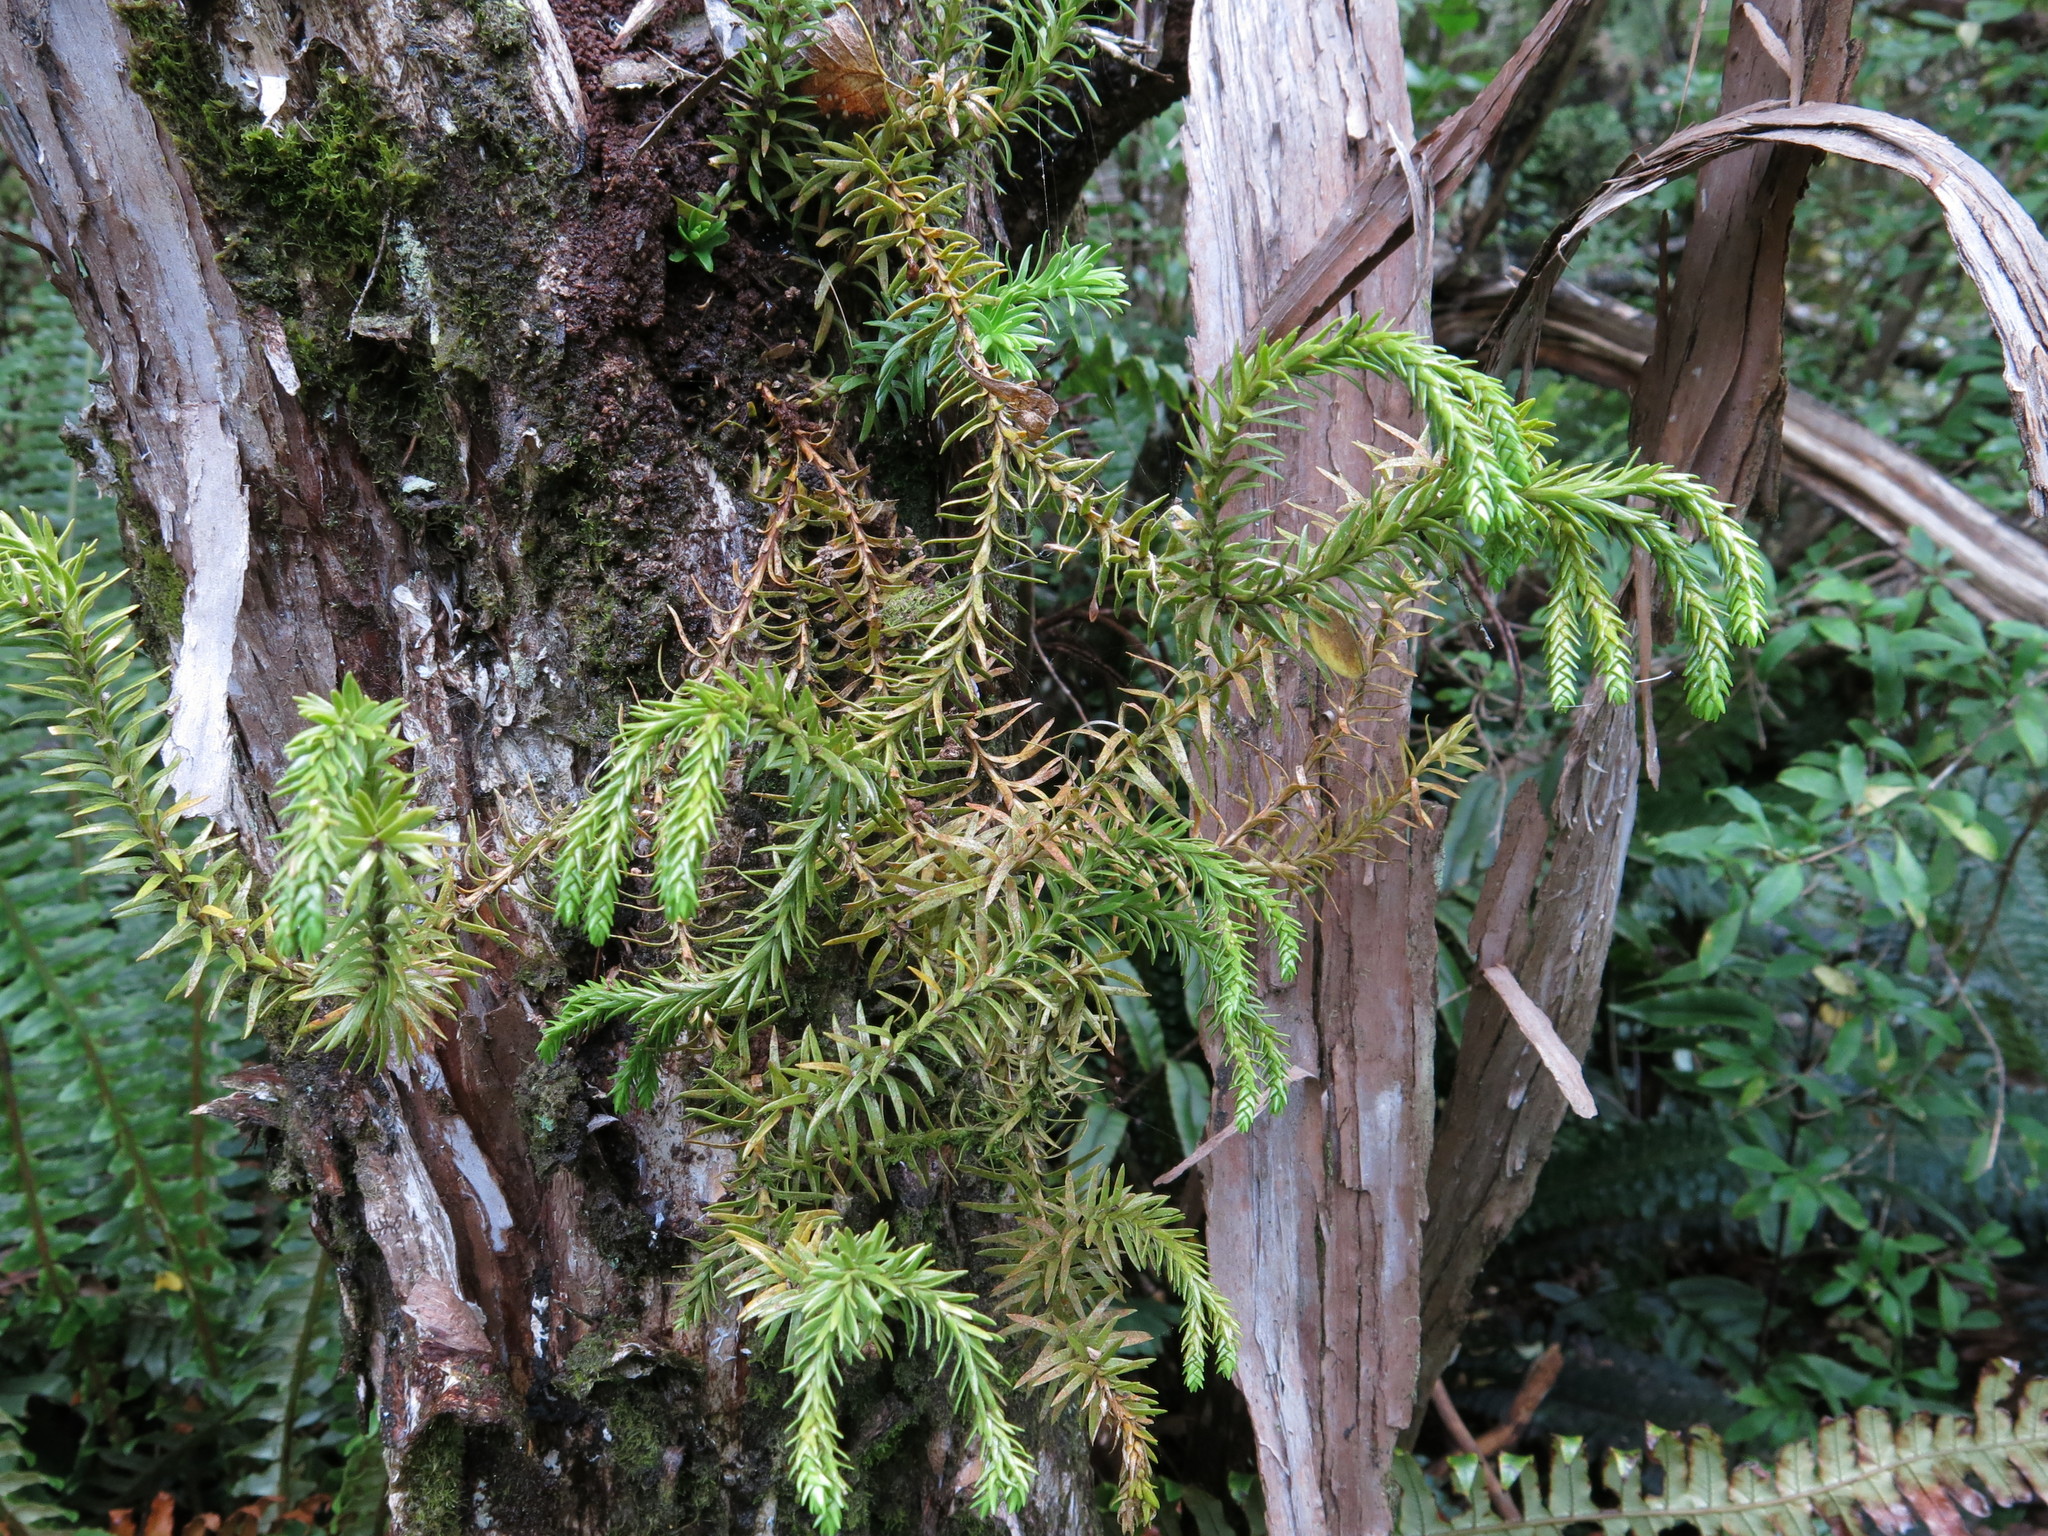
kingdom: Plantae
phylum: Tracheophyta
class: Lycopodiopsida
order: Lycopodiales
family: Lycopodiaceae
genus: Phlegmariurus
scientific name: Phlegmariurus varius
